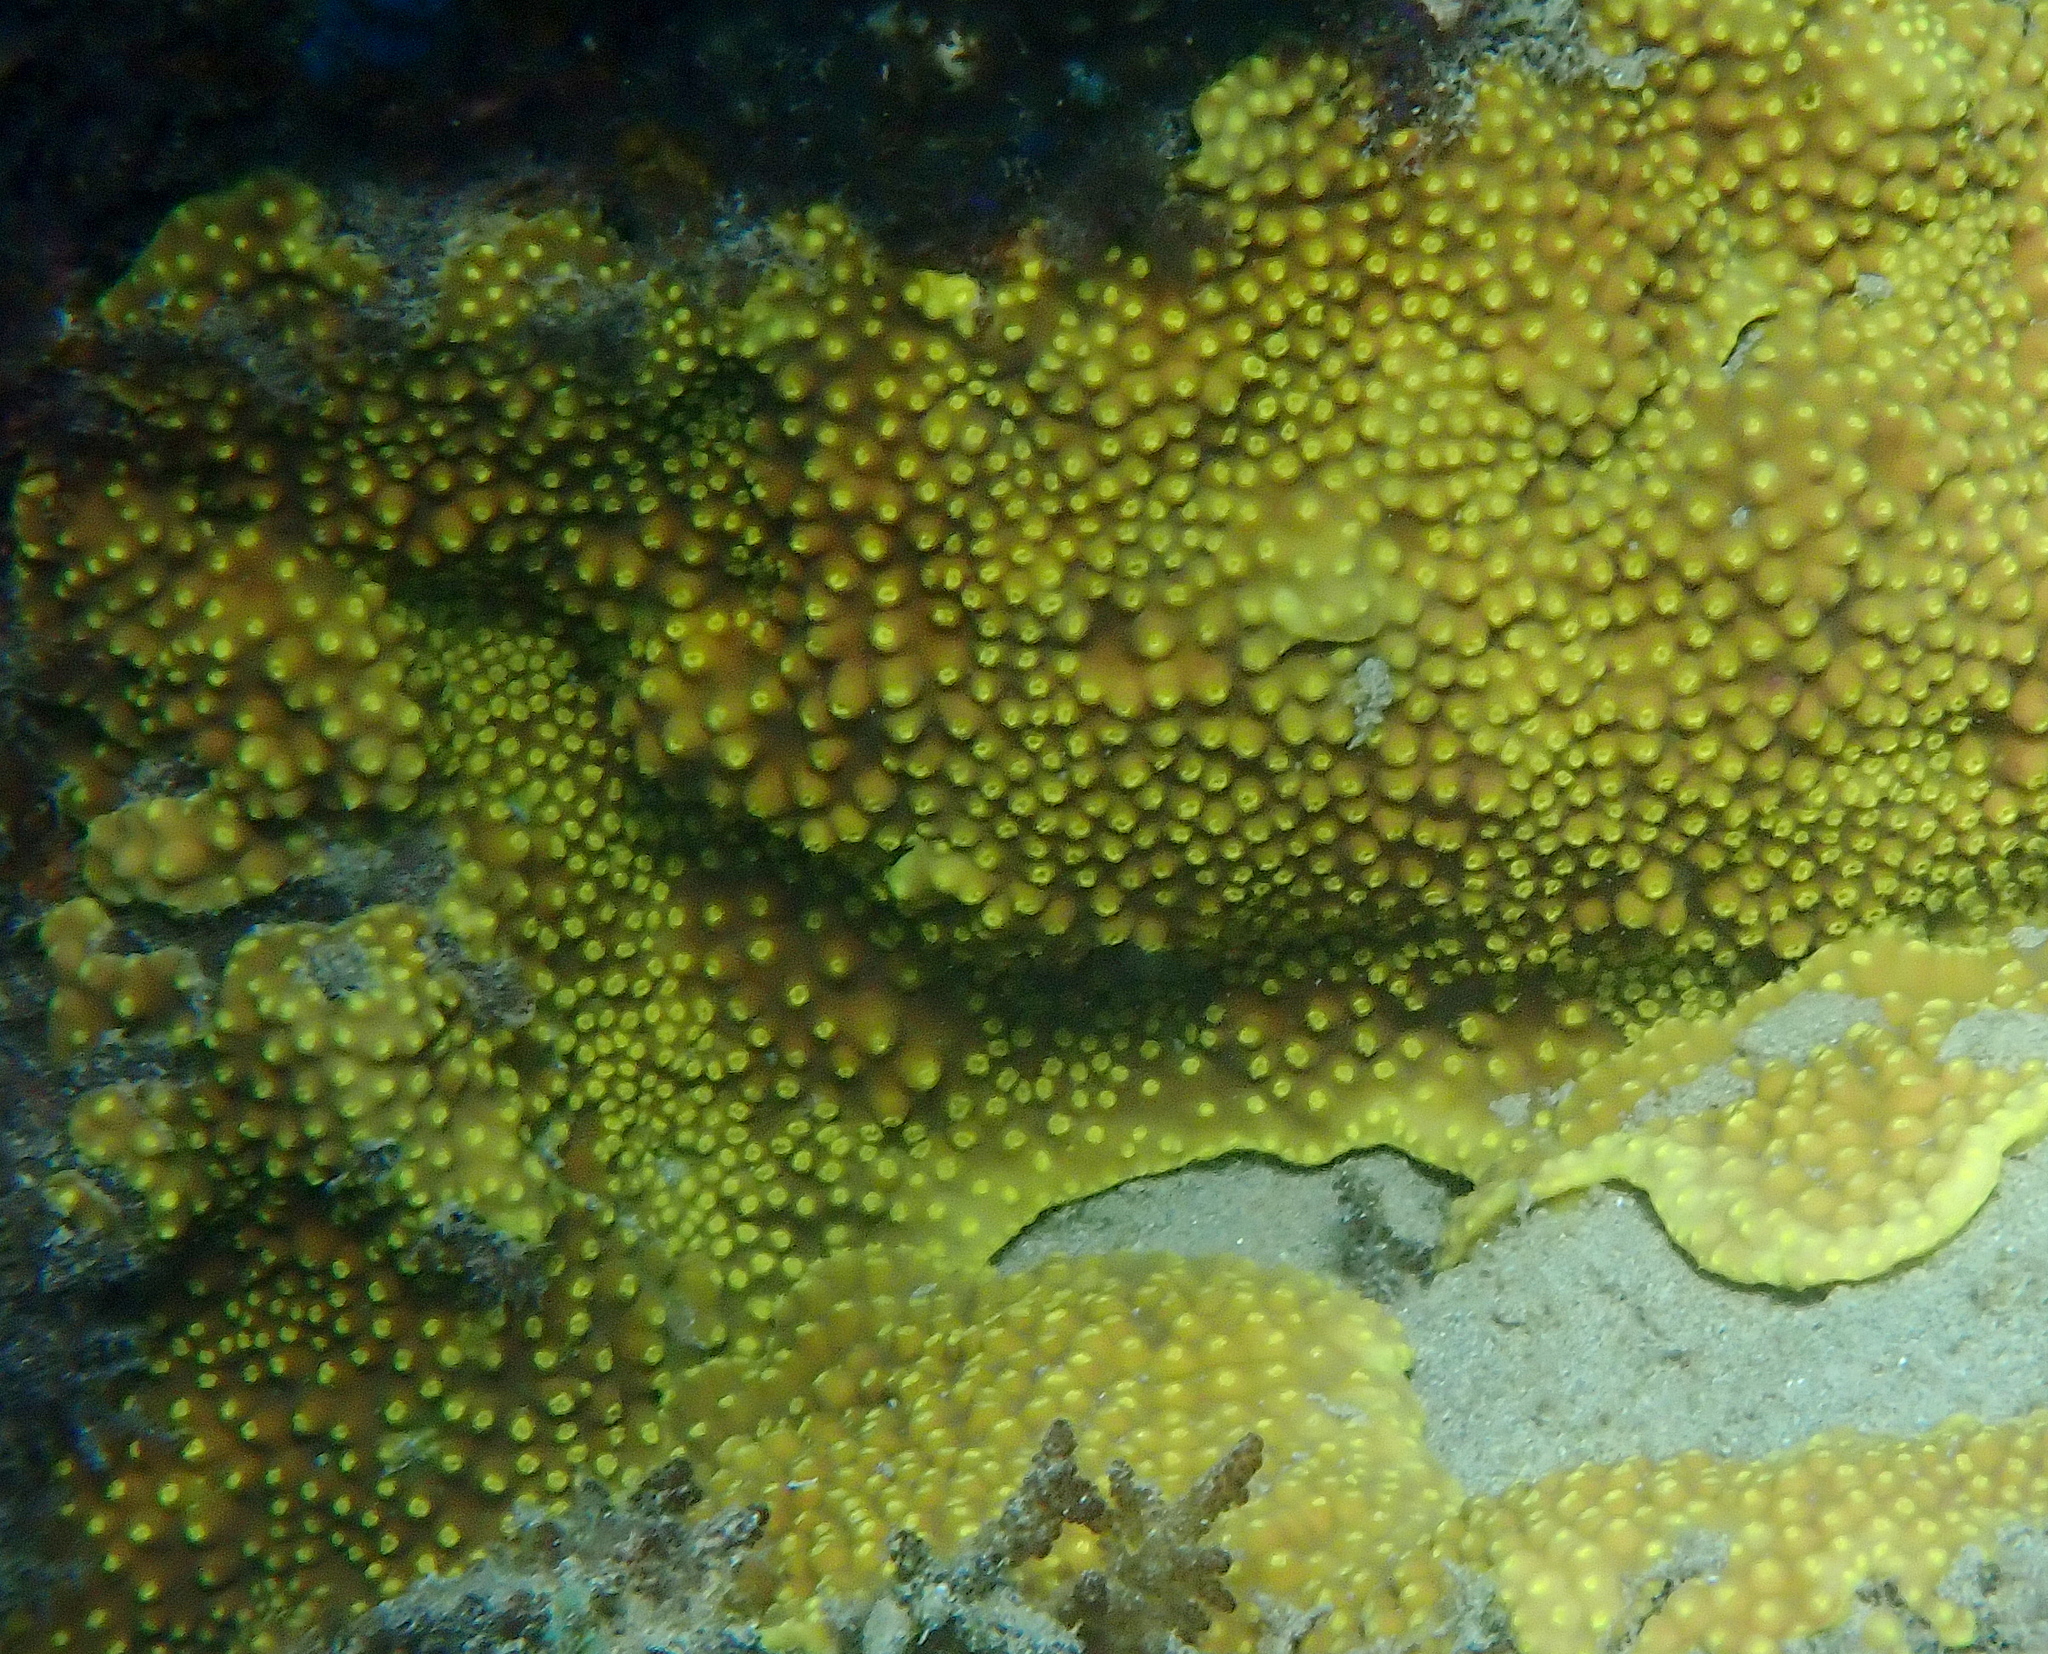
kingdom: Animalia
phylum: Cnidaria
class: Anthozoa
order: Scleractinia
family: Dendrophylliidae
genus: Turbinaria
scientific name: Turbinaria reniformis
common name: Disc coral
